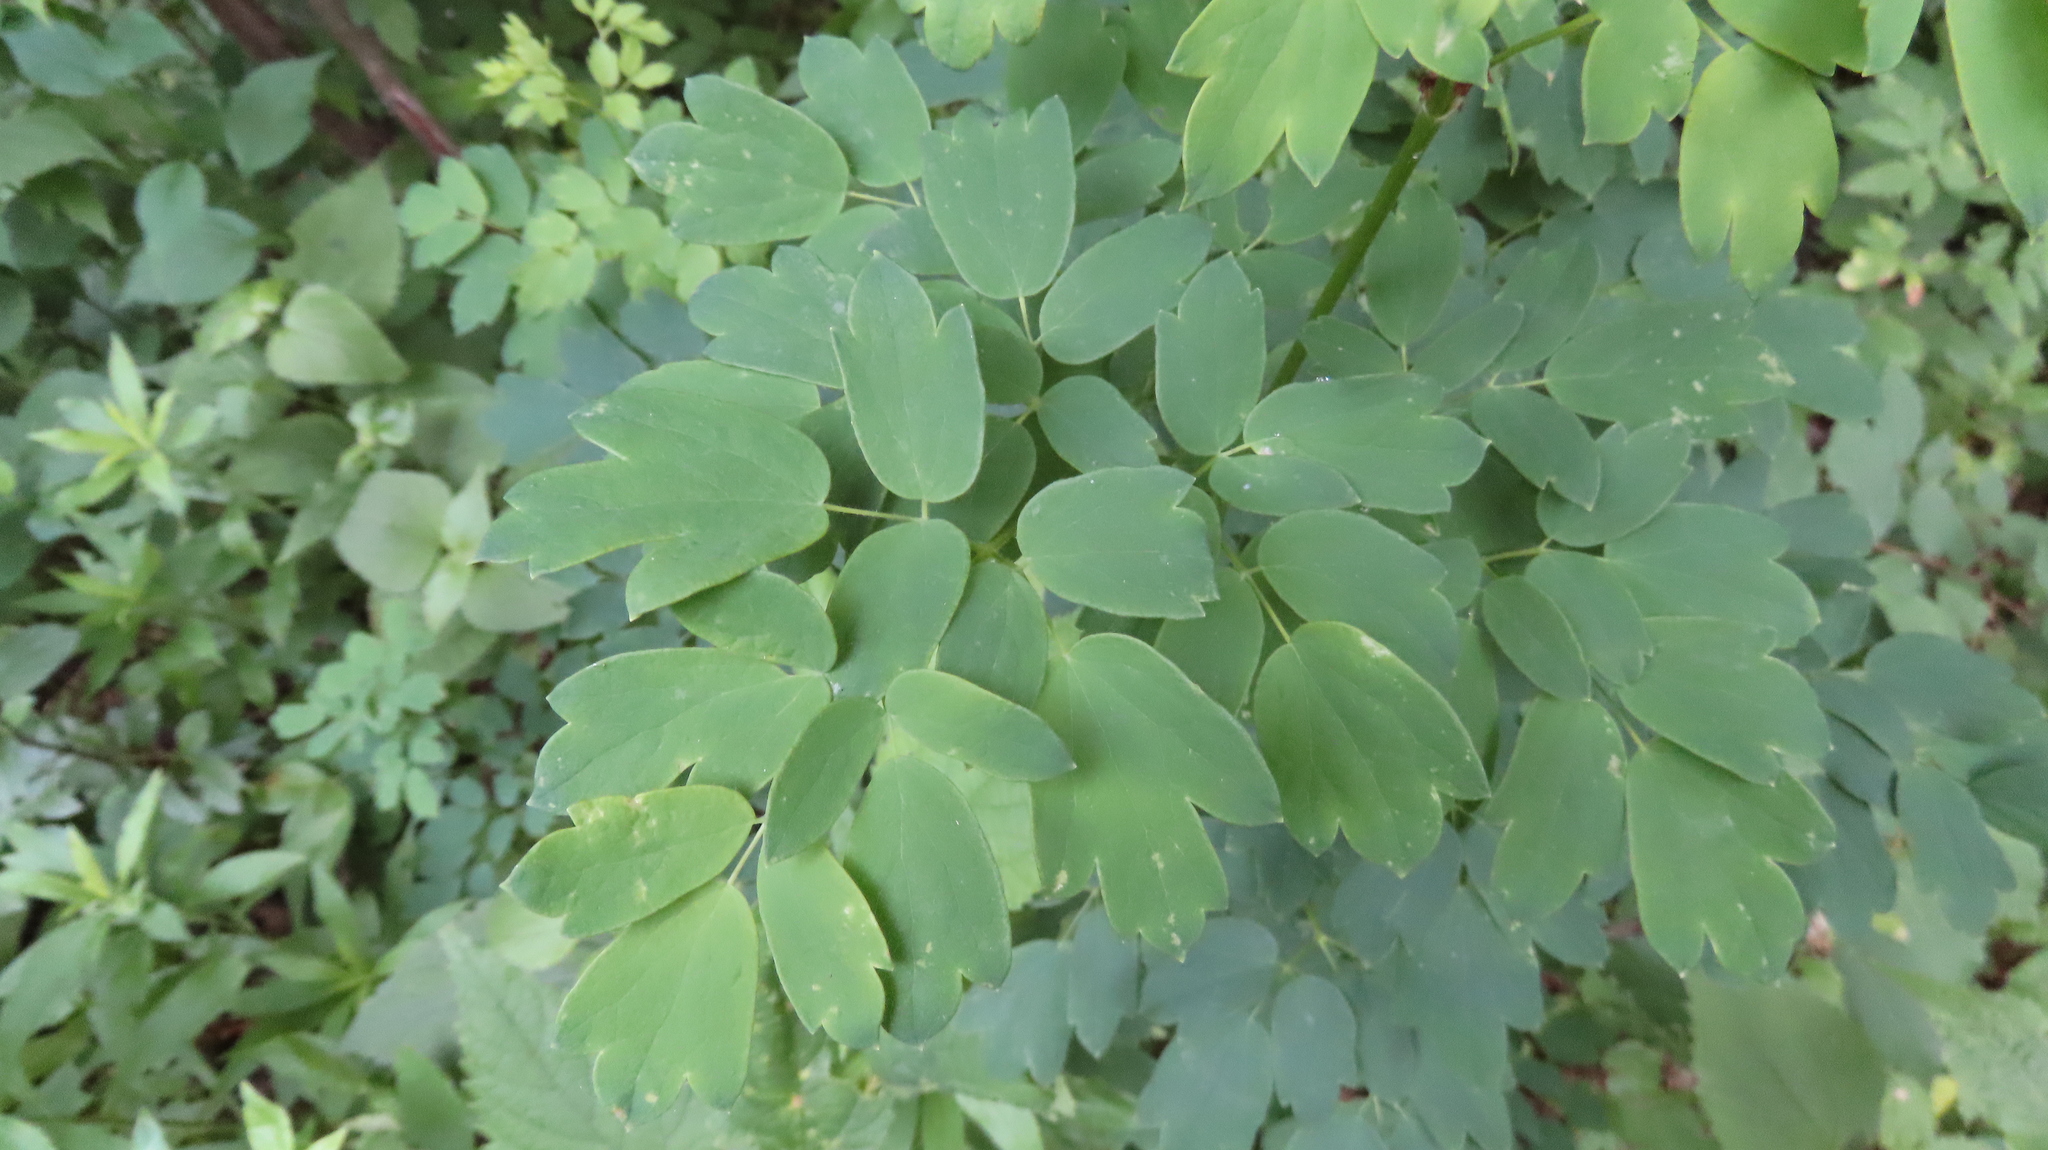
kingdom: Plantae
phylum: Tracheophyta
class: Magnoliopsida
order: Ranunculales
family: Ranunculaceae
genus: Thalictrum
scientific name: Thalictrum dasycarpum
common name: Purple meadow-rue
